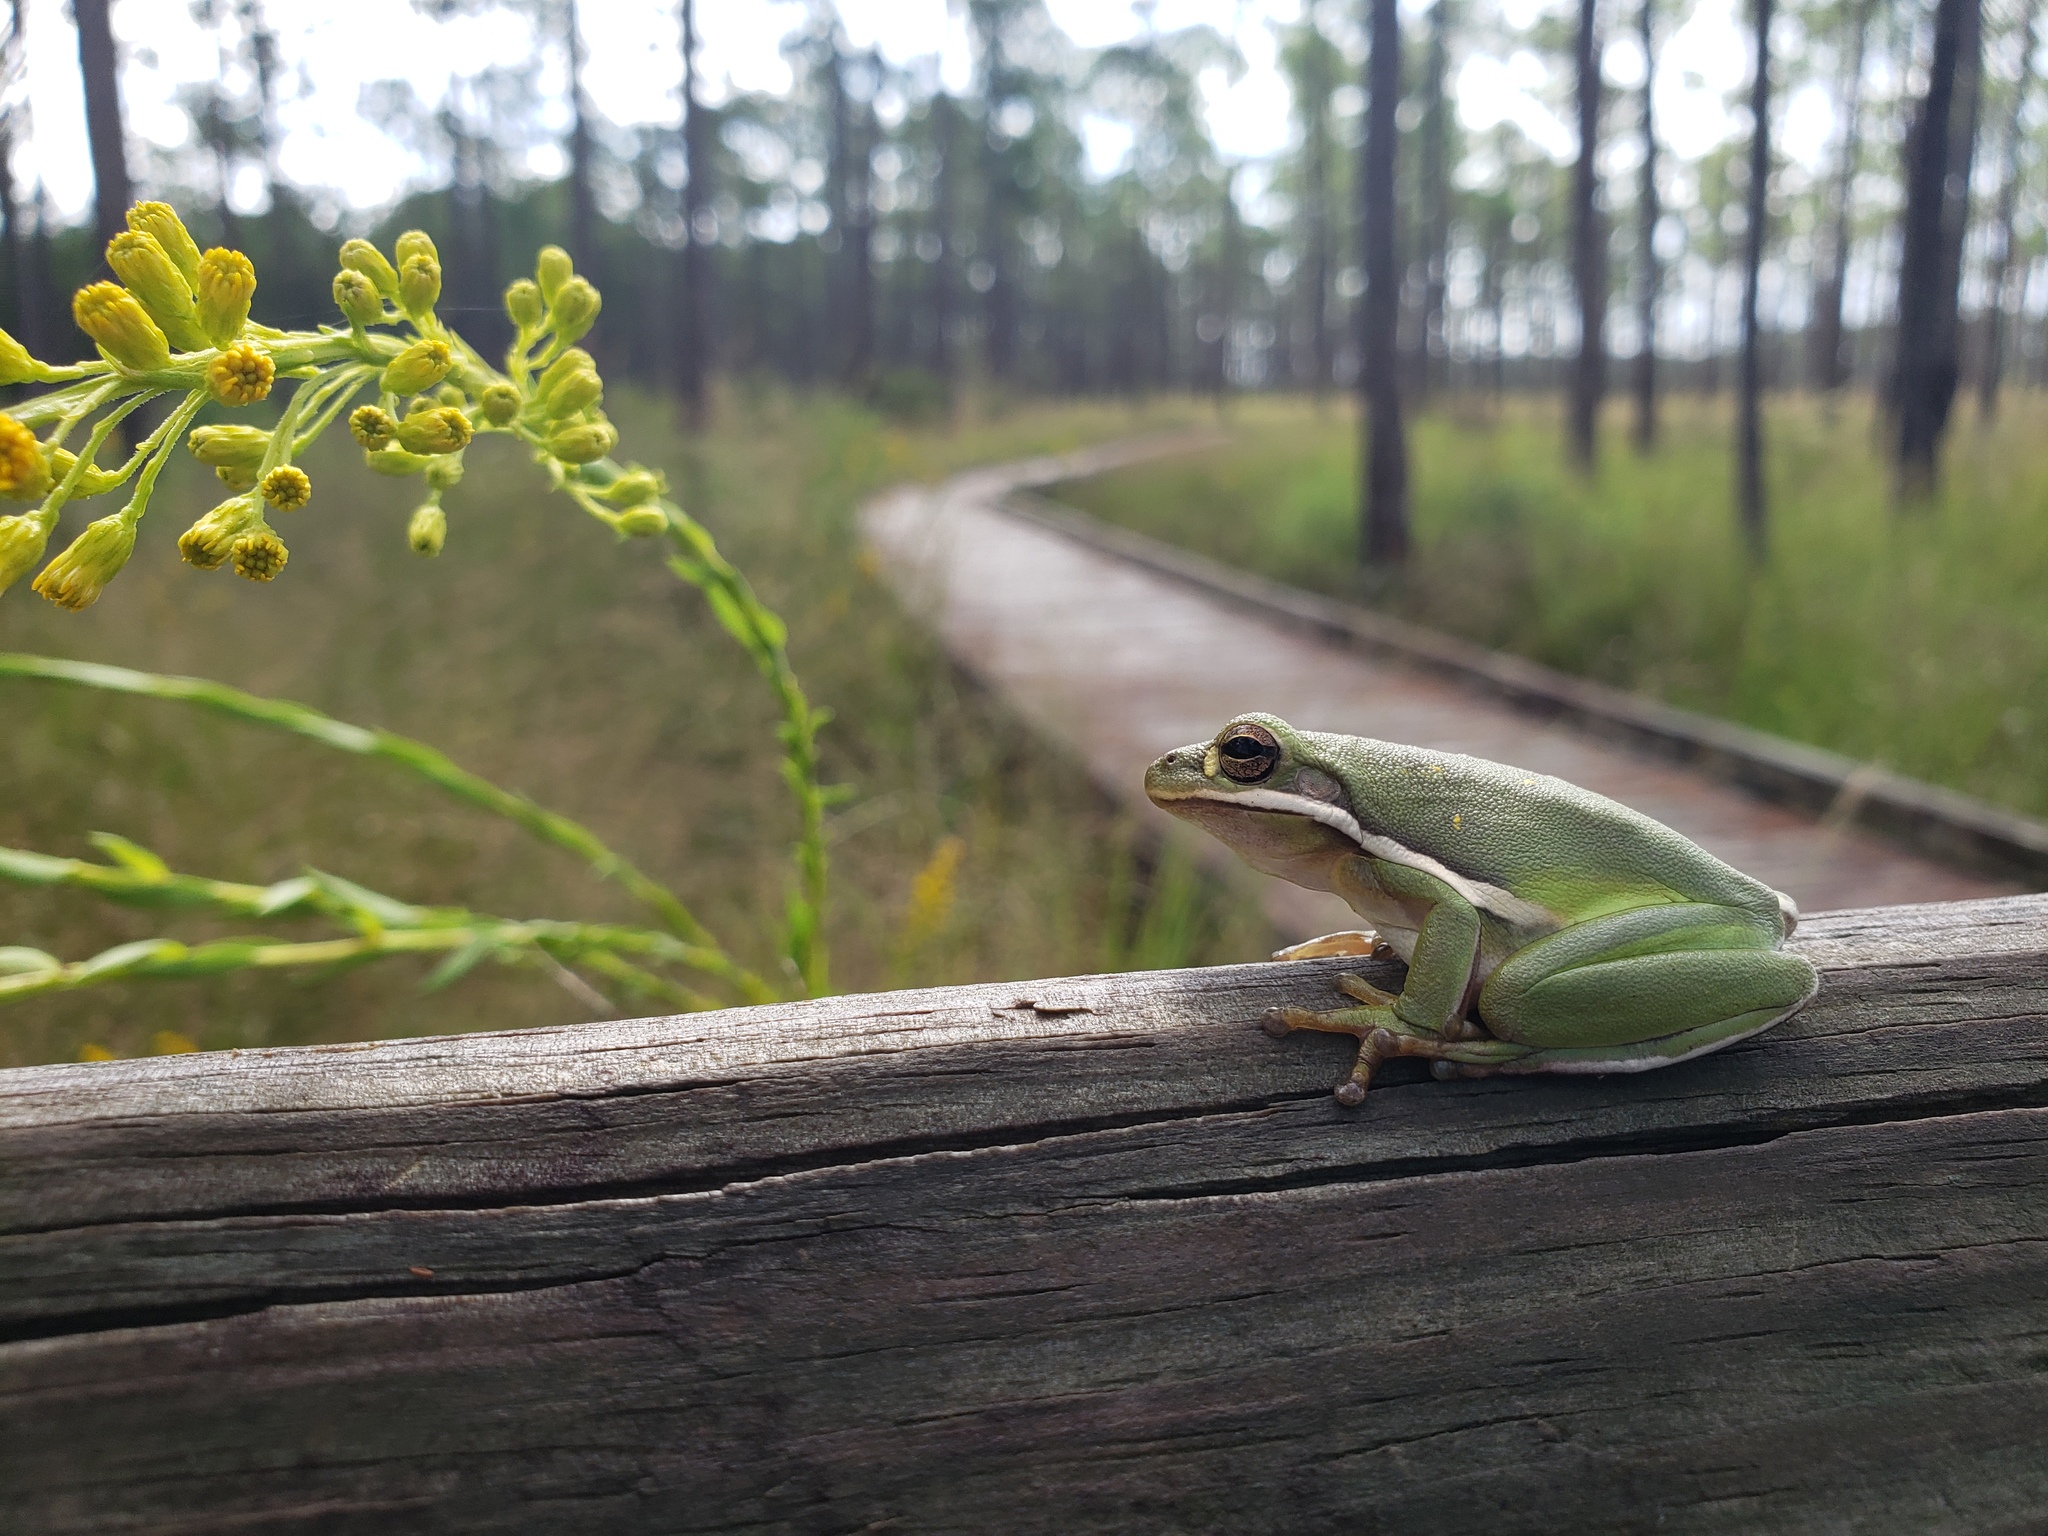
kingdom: Animalia
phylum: Chordata
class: Amphibia
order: Anura
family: Hylidae
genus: Dryophytes
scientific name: Dryophytes cinereus
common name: Green treefrog
